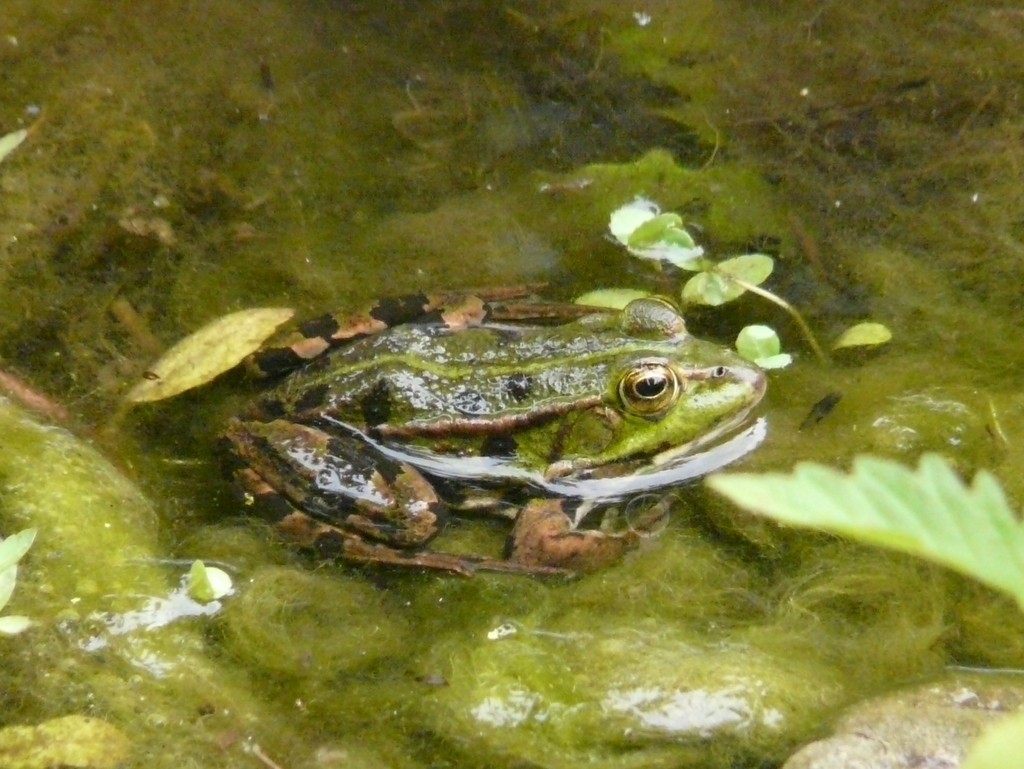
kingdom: Animalia
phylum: Chordata
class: Amphibia
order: Anura
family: Ranidae
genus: Pelophylax
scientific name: Pelophylax
